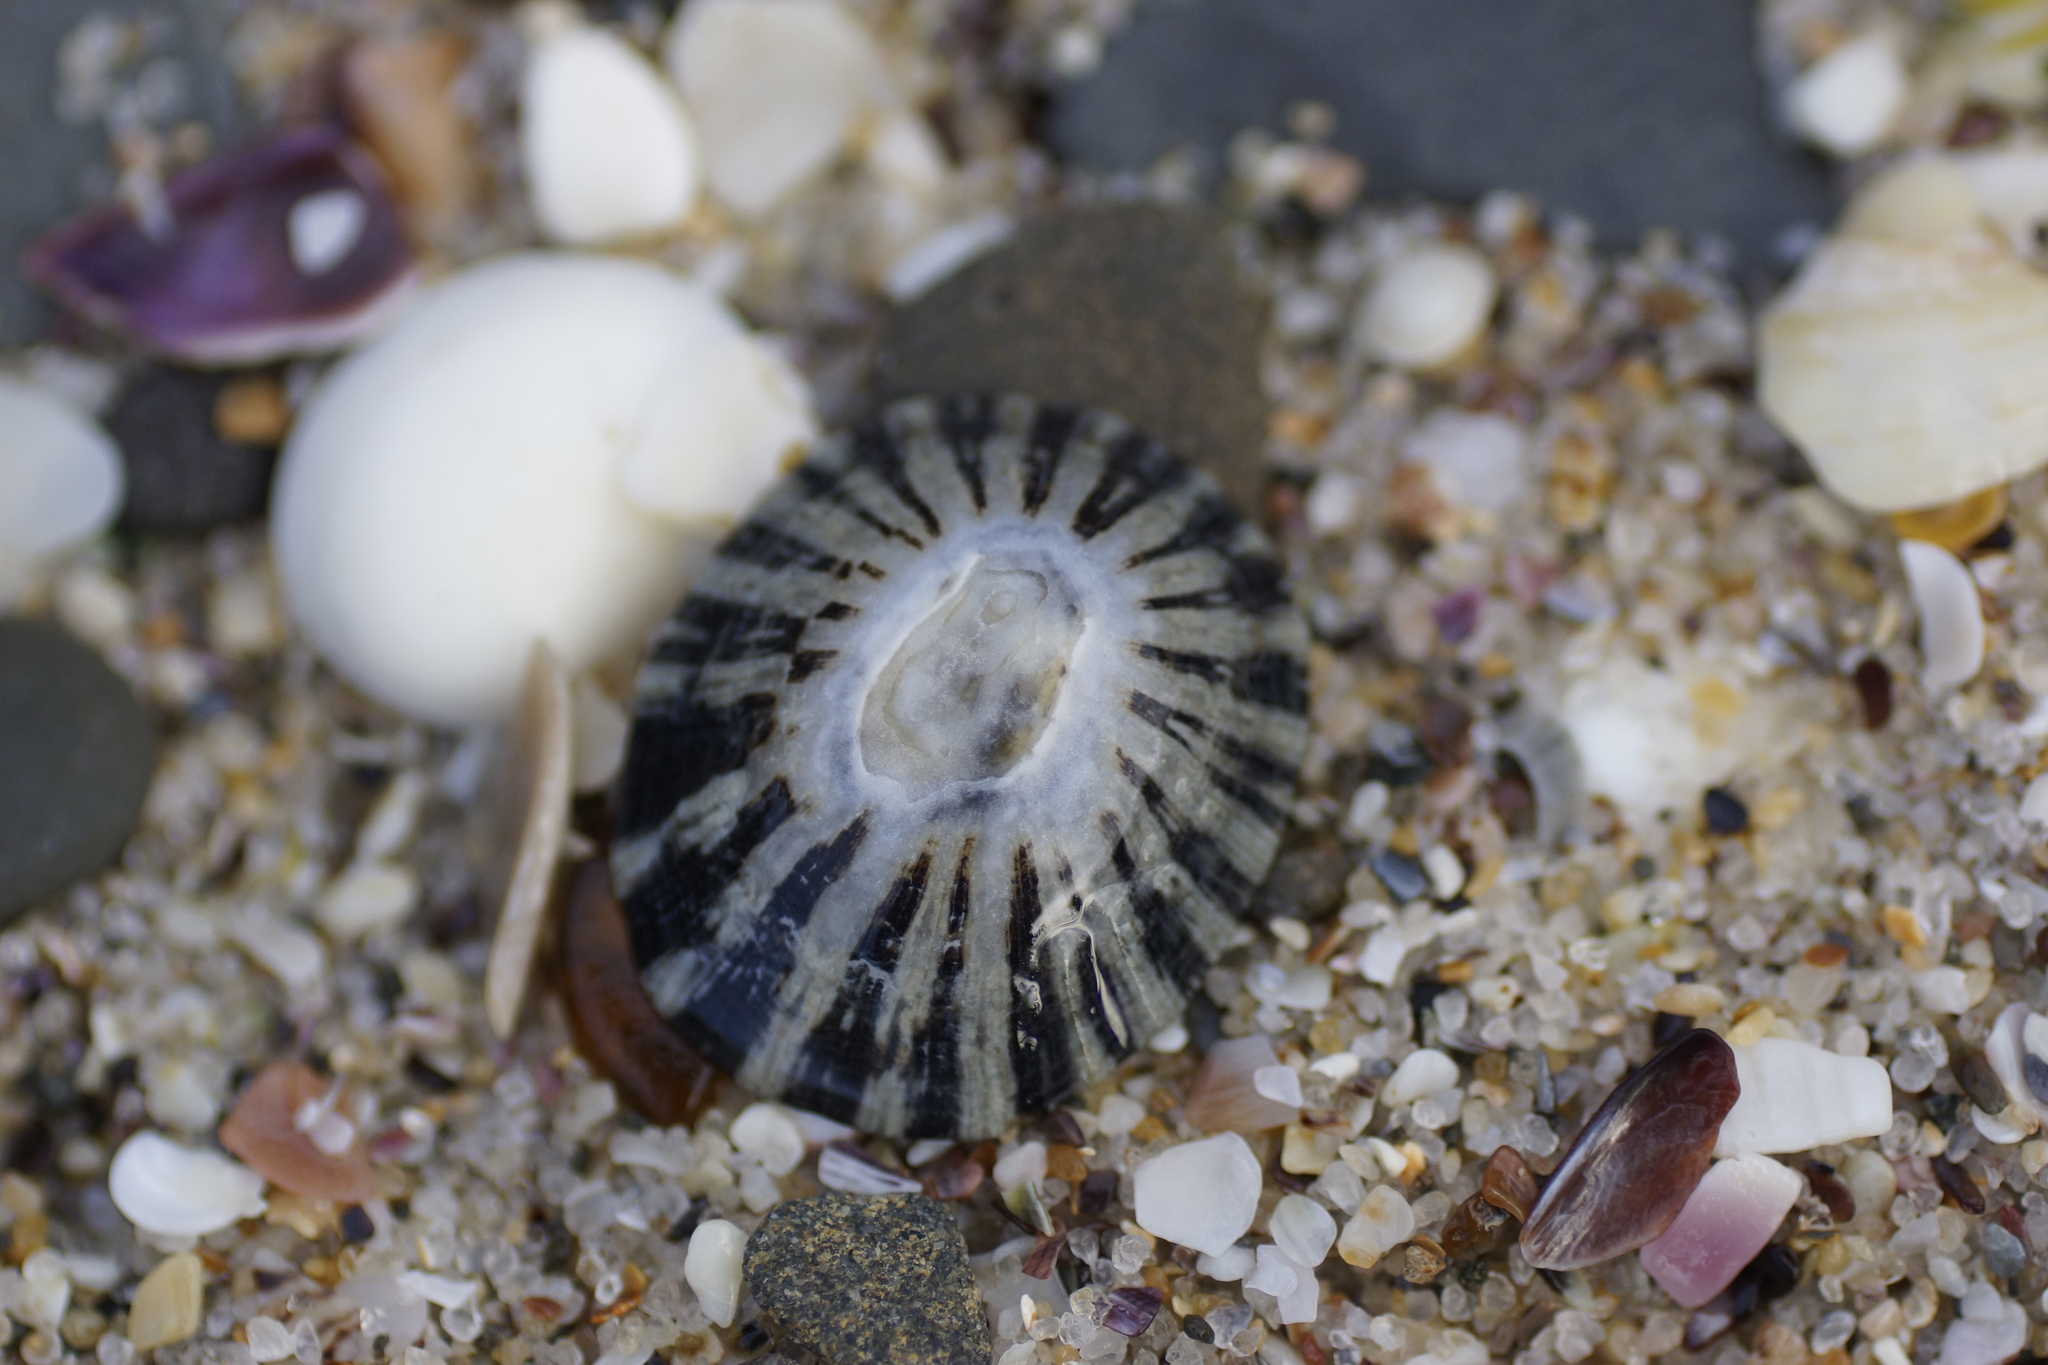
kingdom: Animalia
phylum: Mollusca
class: Gastropoda
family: Nacellidae
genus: Cellana
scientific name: Cellana tramoserica
